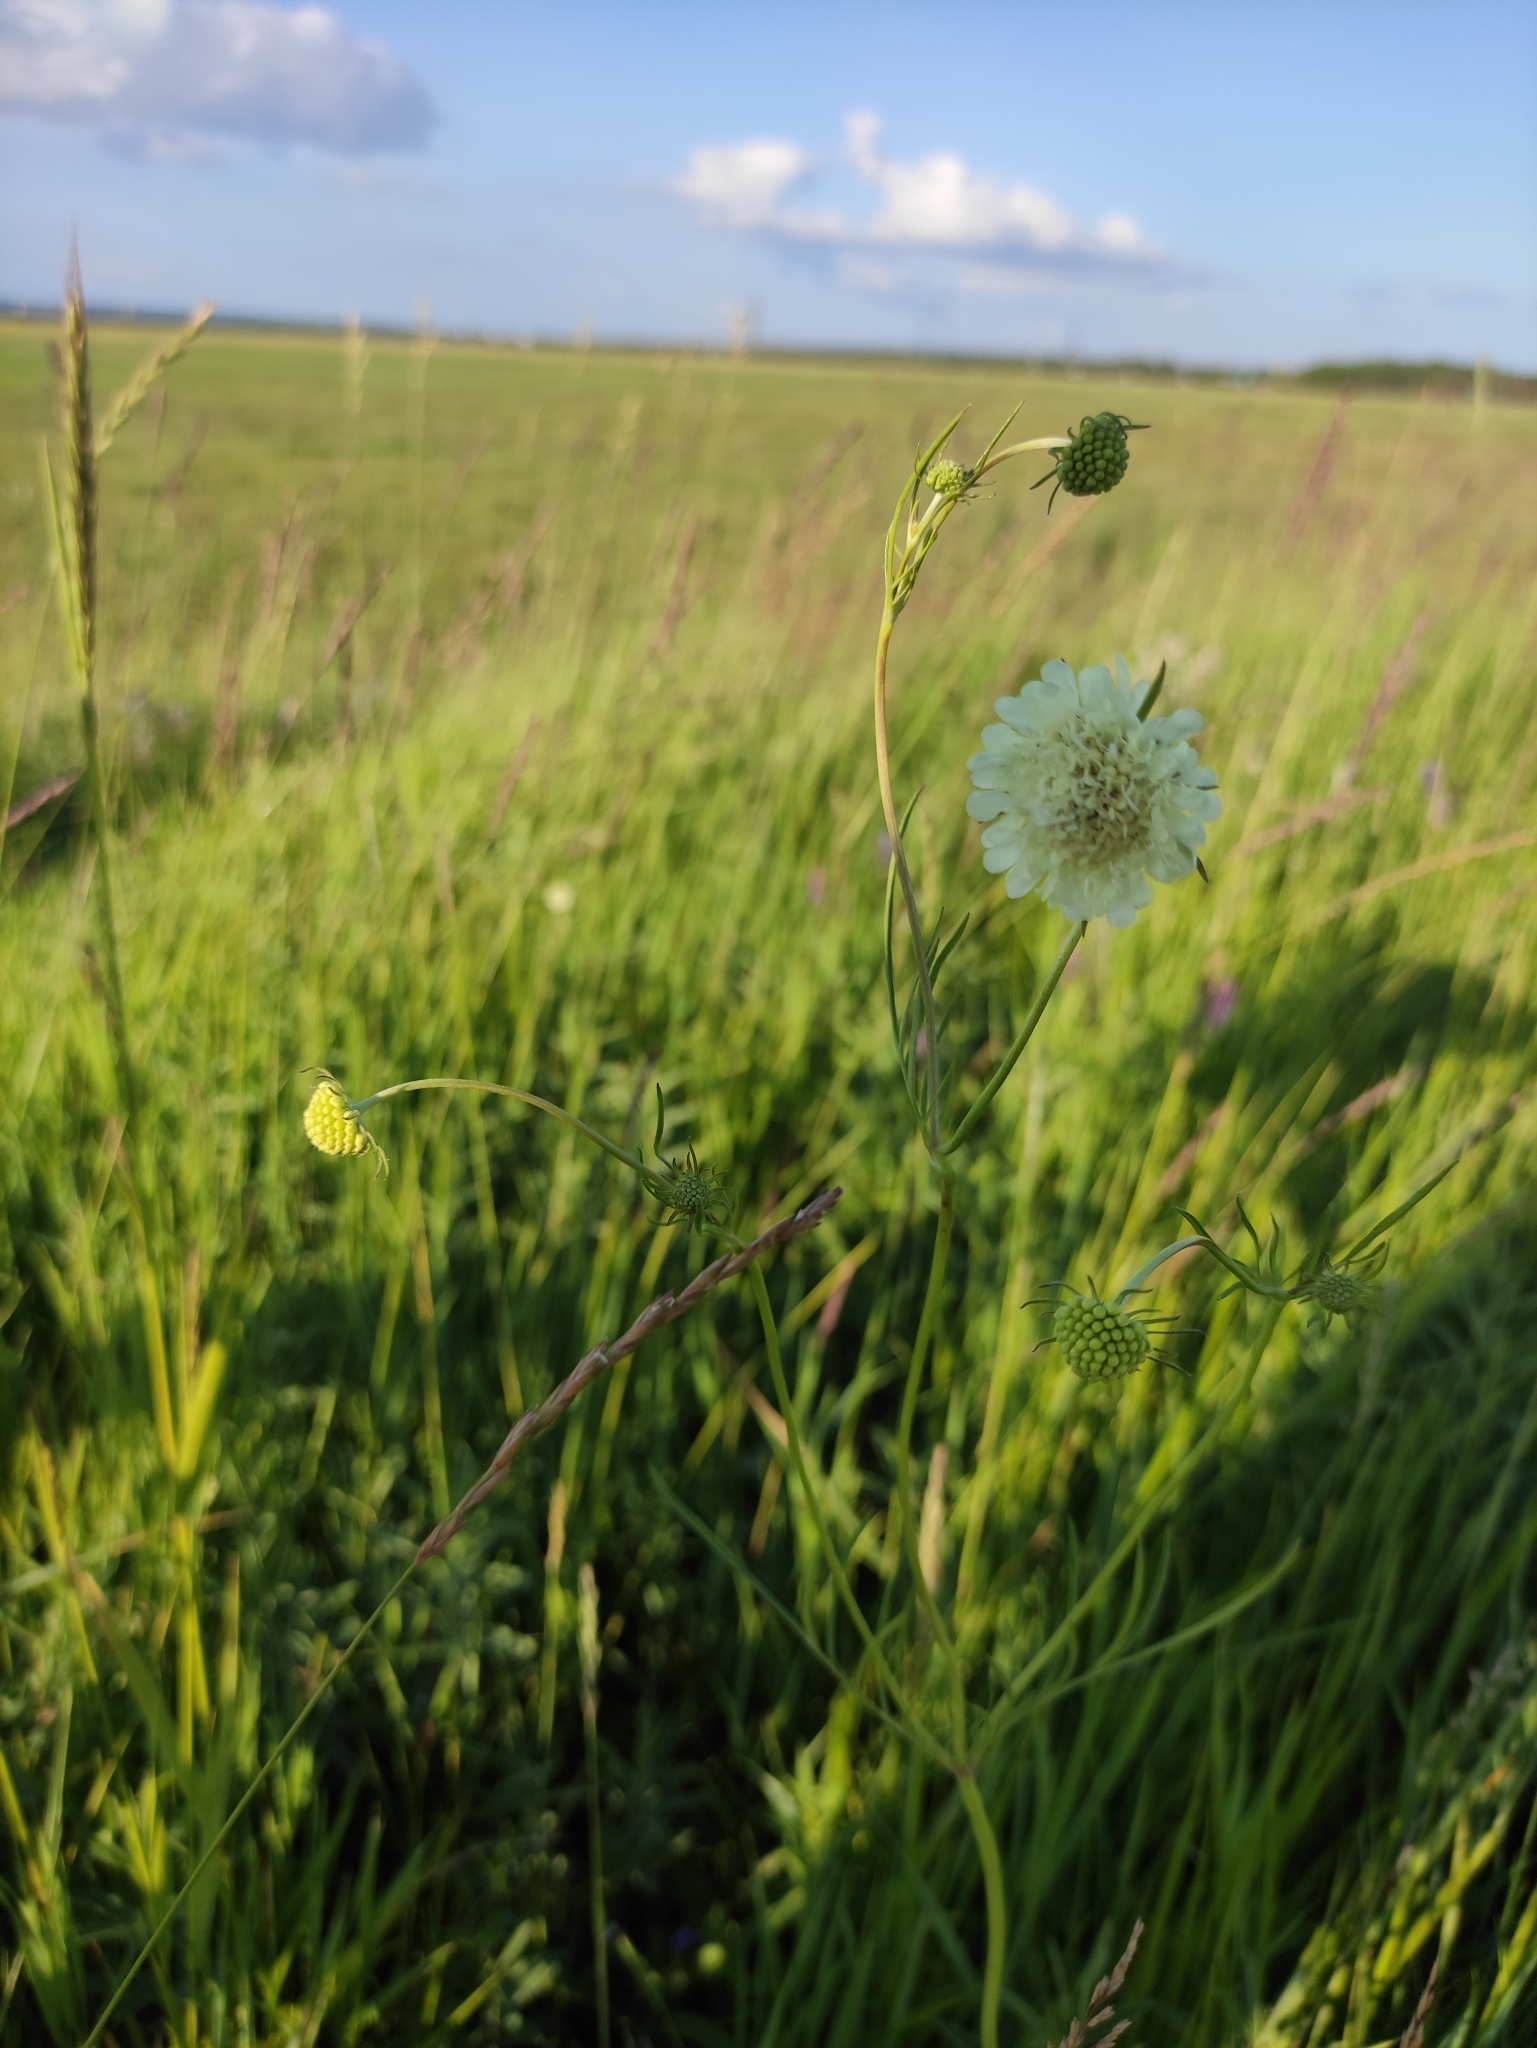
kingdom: Plantae
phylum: Tracheophyta
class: Magnoliopsida
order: Dipsacales
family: Caprifoliaceae
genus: Scabiosa
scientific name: Scabiosa ochroleuca
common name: Cream pincushions
